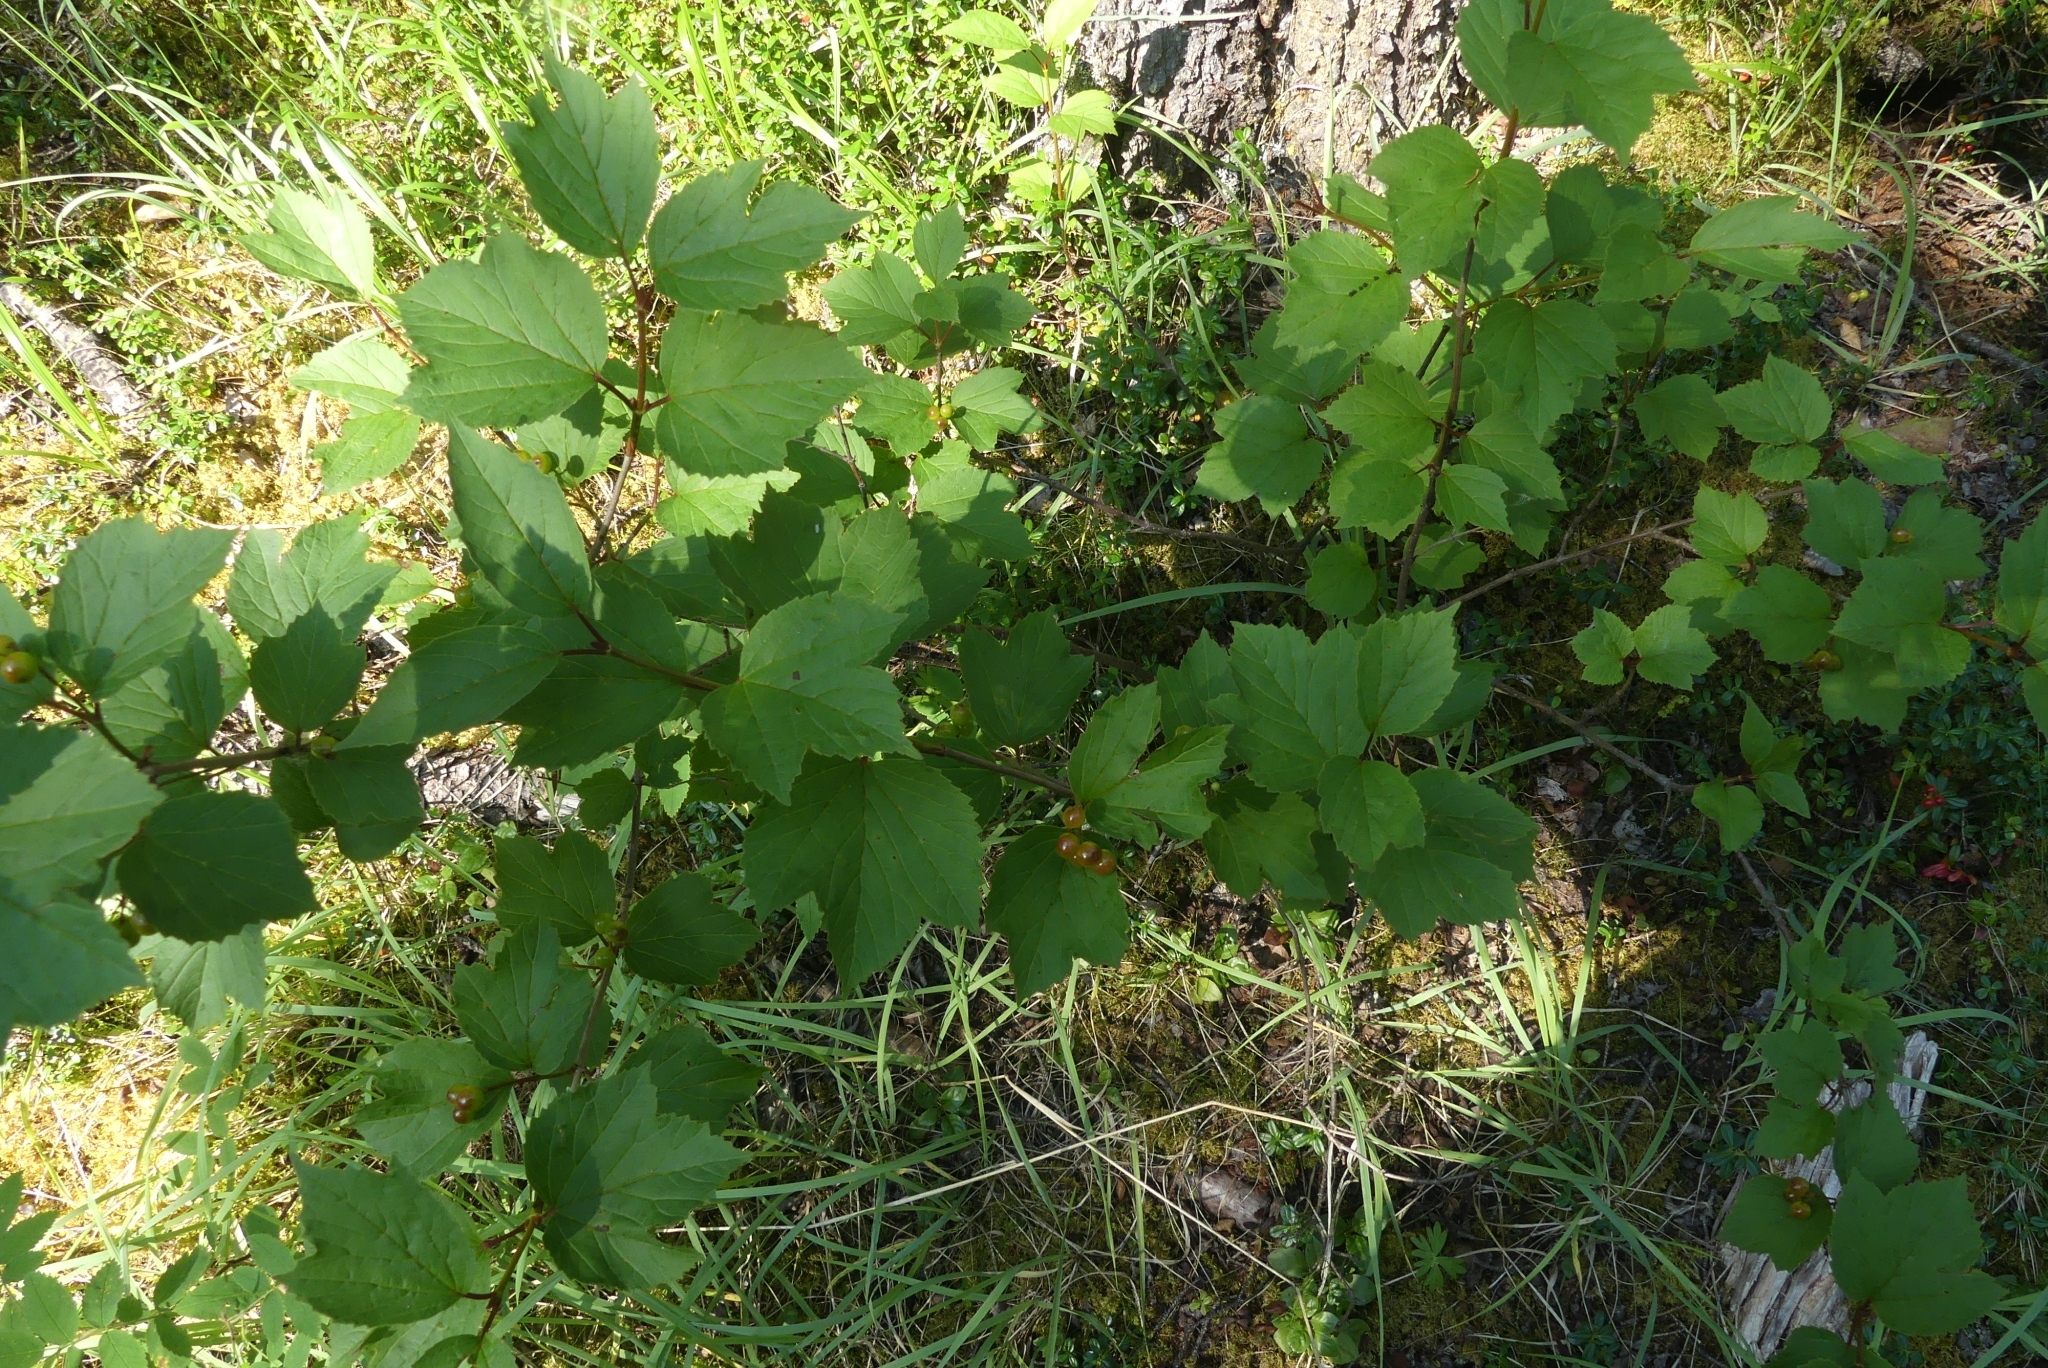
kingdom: Plantae
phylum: Tracheophyta
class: Magnoliopsida
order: Dipsacales
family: Viburnaceae
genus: Viburnum
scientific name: Viburnum edule
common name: Mooseberry
